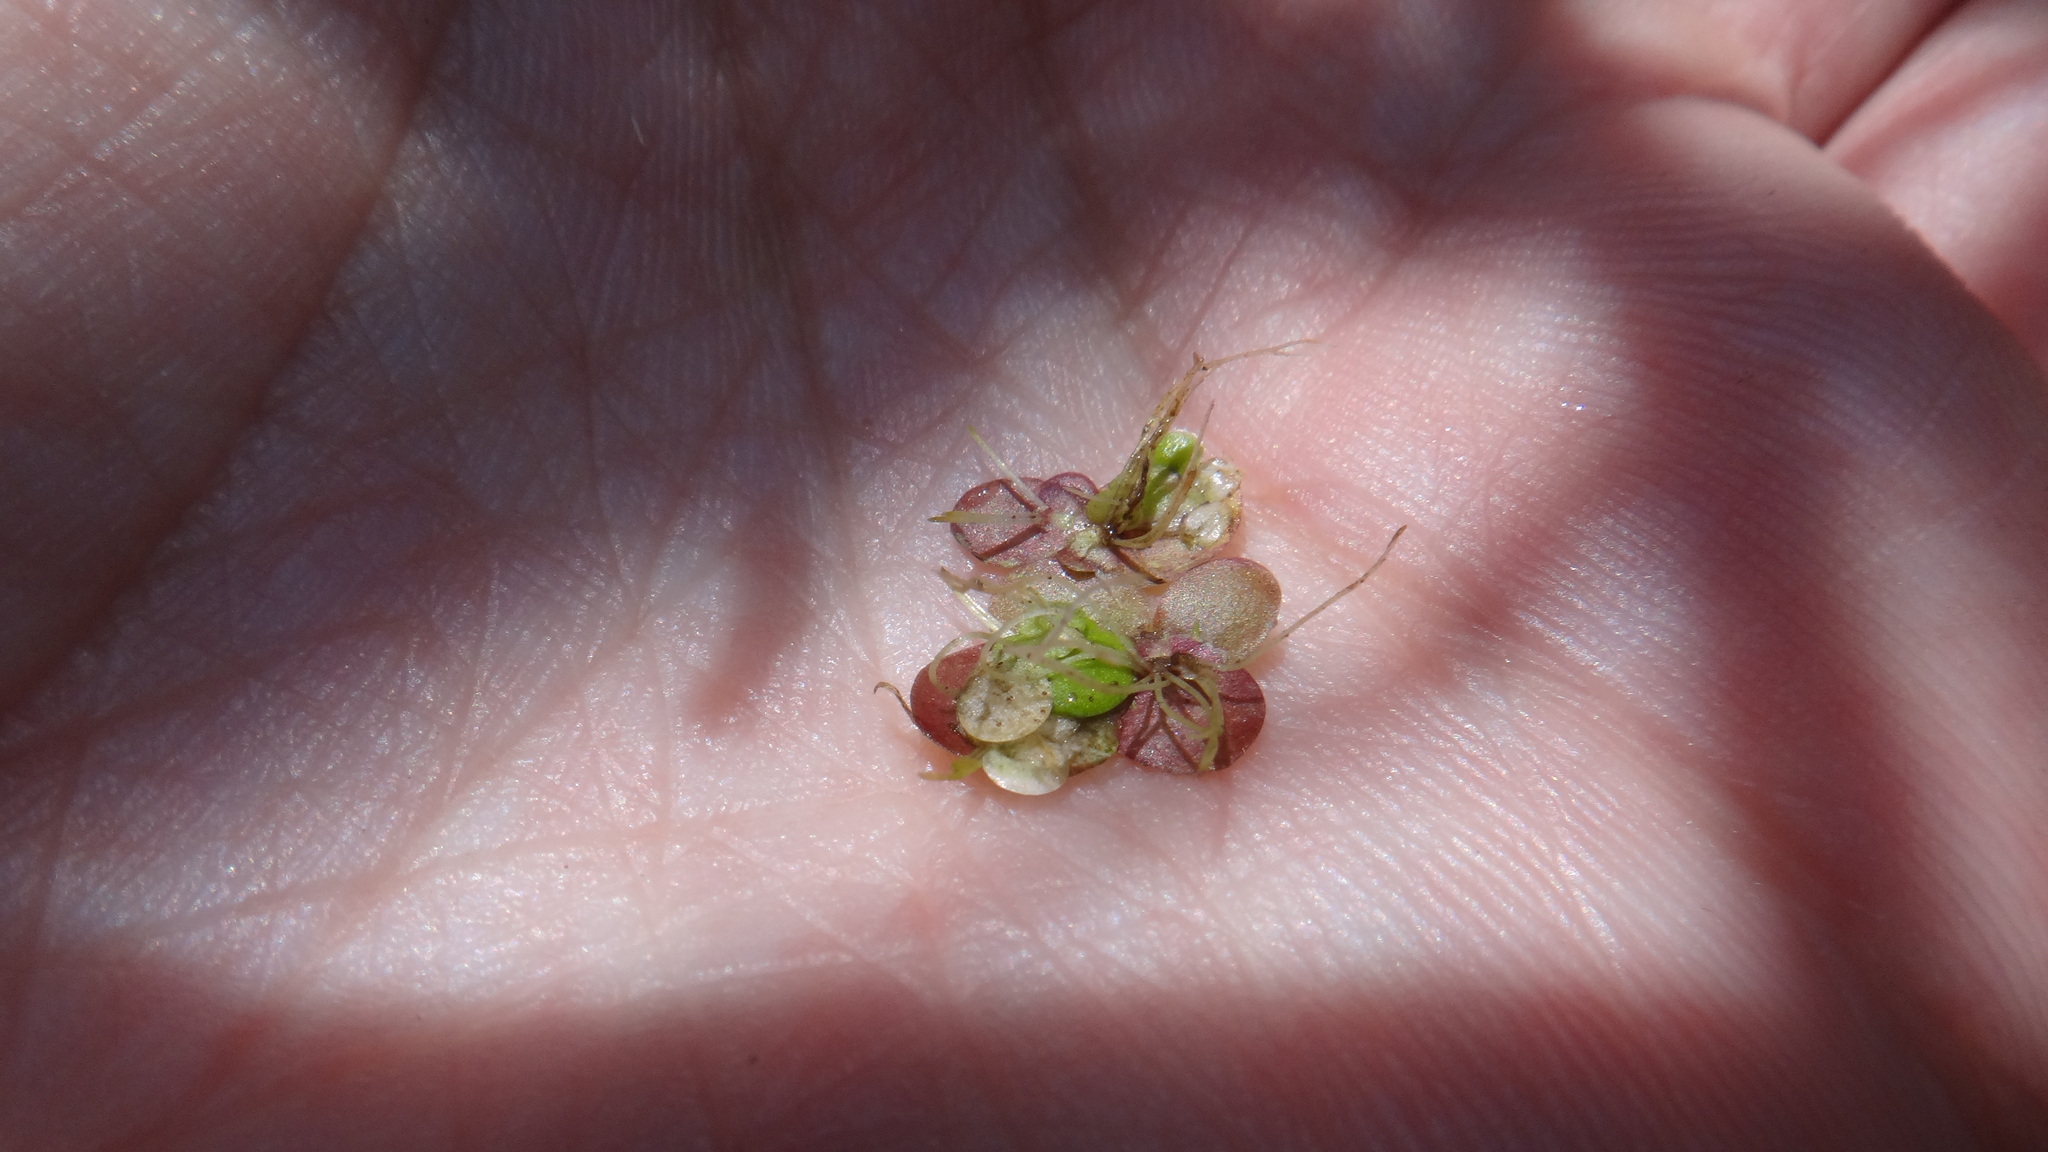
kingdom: Plantae
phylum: Tracheophyta
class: Liliopsida
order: Alismatales
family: Araceae
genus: Spirodela
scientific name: Spirodela polyrhiza
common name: Great duckweed
